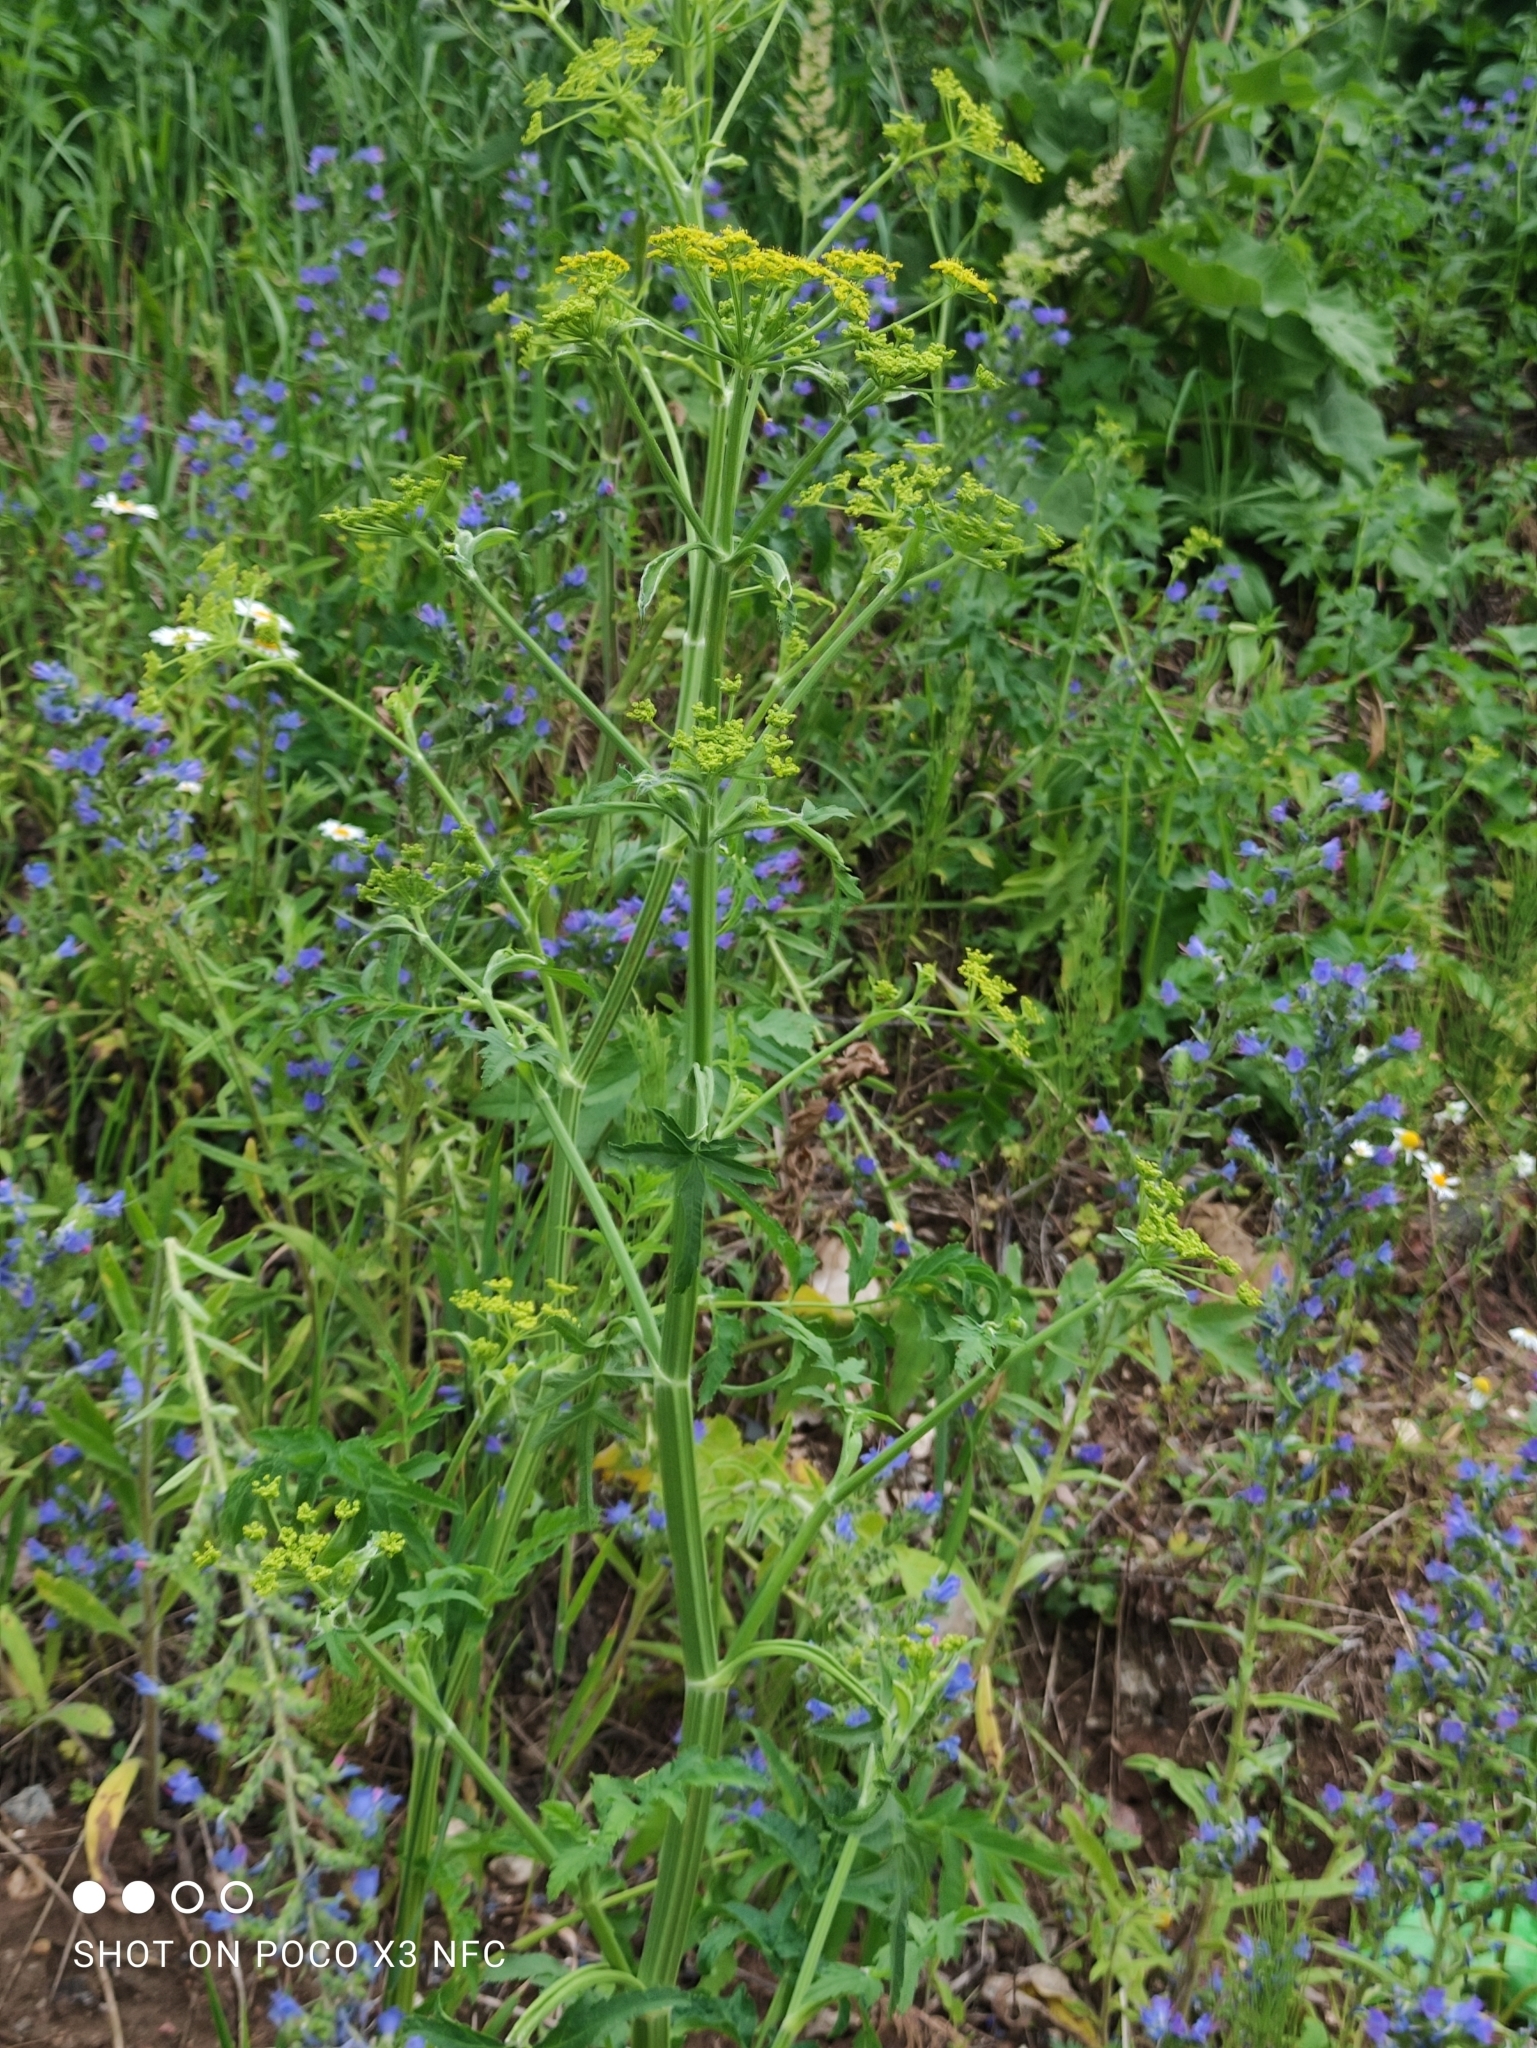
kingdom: Plantae
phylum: Tracheophyta
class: Magnoliopsida
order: Apiales
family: Apiaceae
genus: Pastinaca
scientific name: Pastinaca sativa
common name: Wild parsnip
